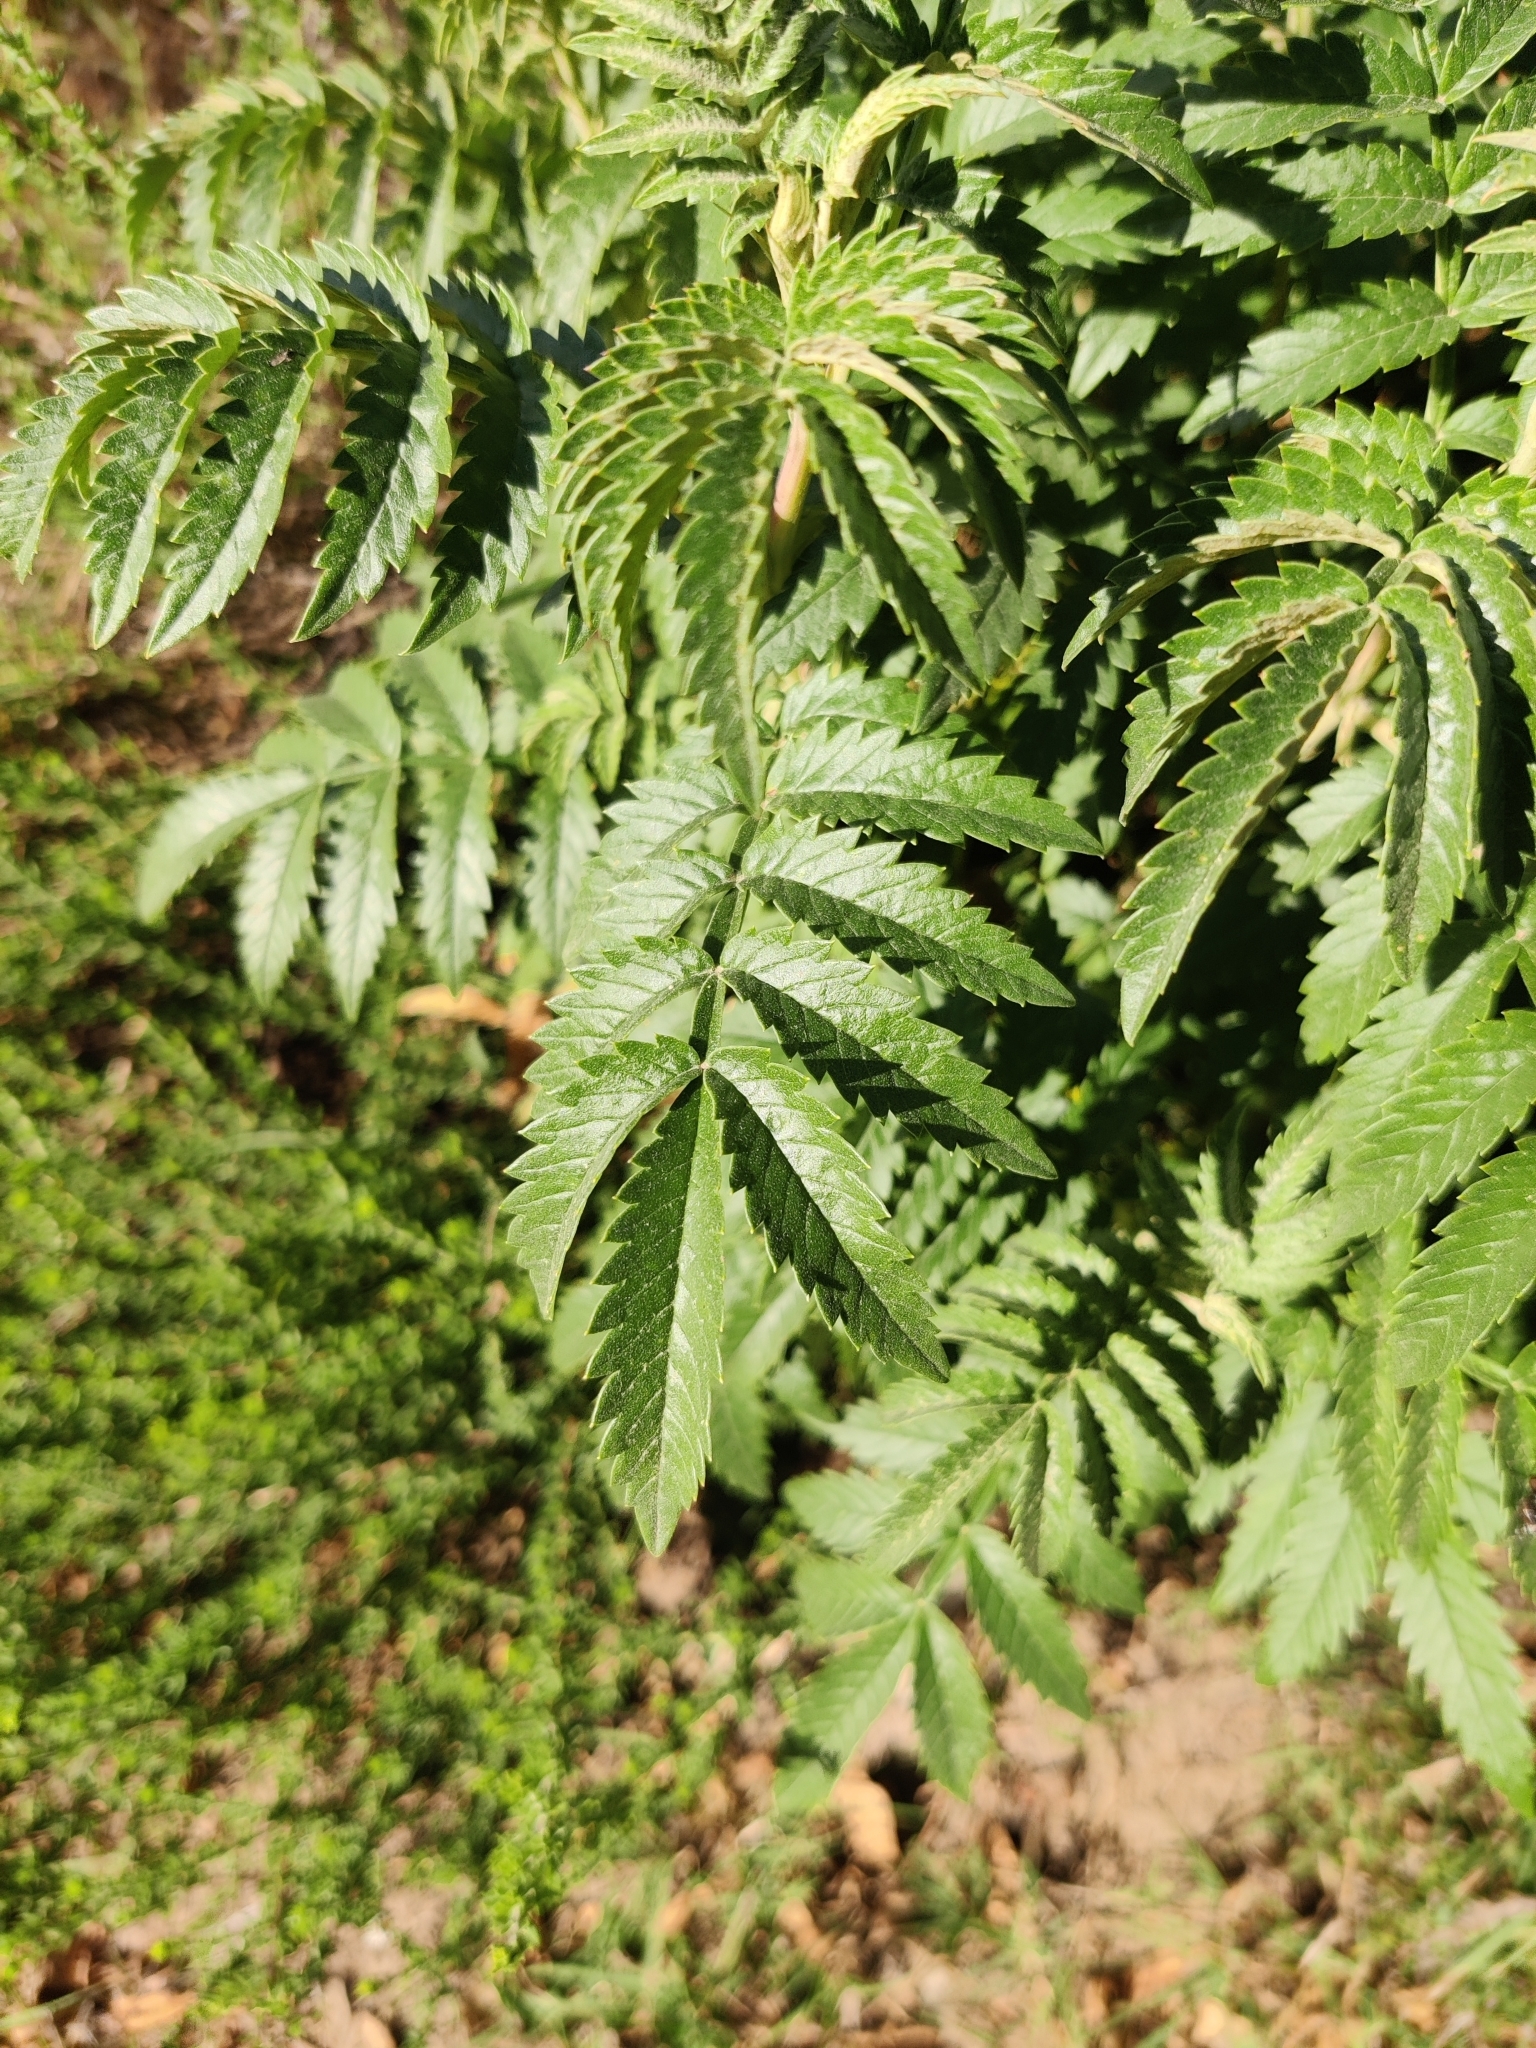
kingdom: Plantae
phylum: Tracheophyta
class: Magnoliopsida
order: Geraniales
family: Melianthaceae
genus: Melianthus
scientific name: Melianthus comosus
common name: Touch-me-not
